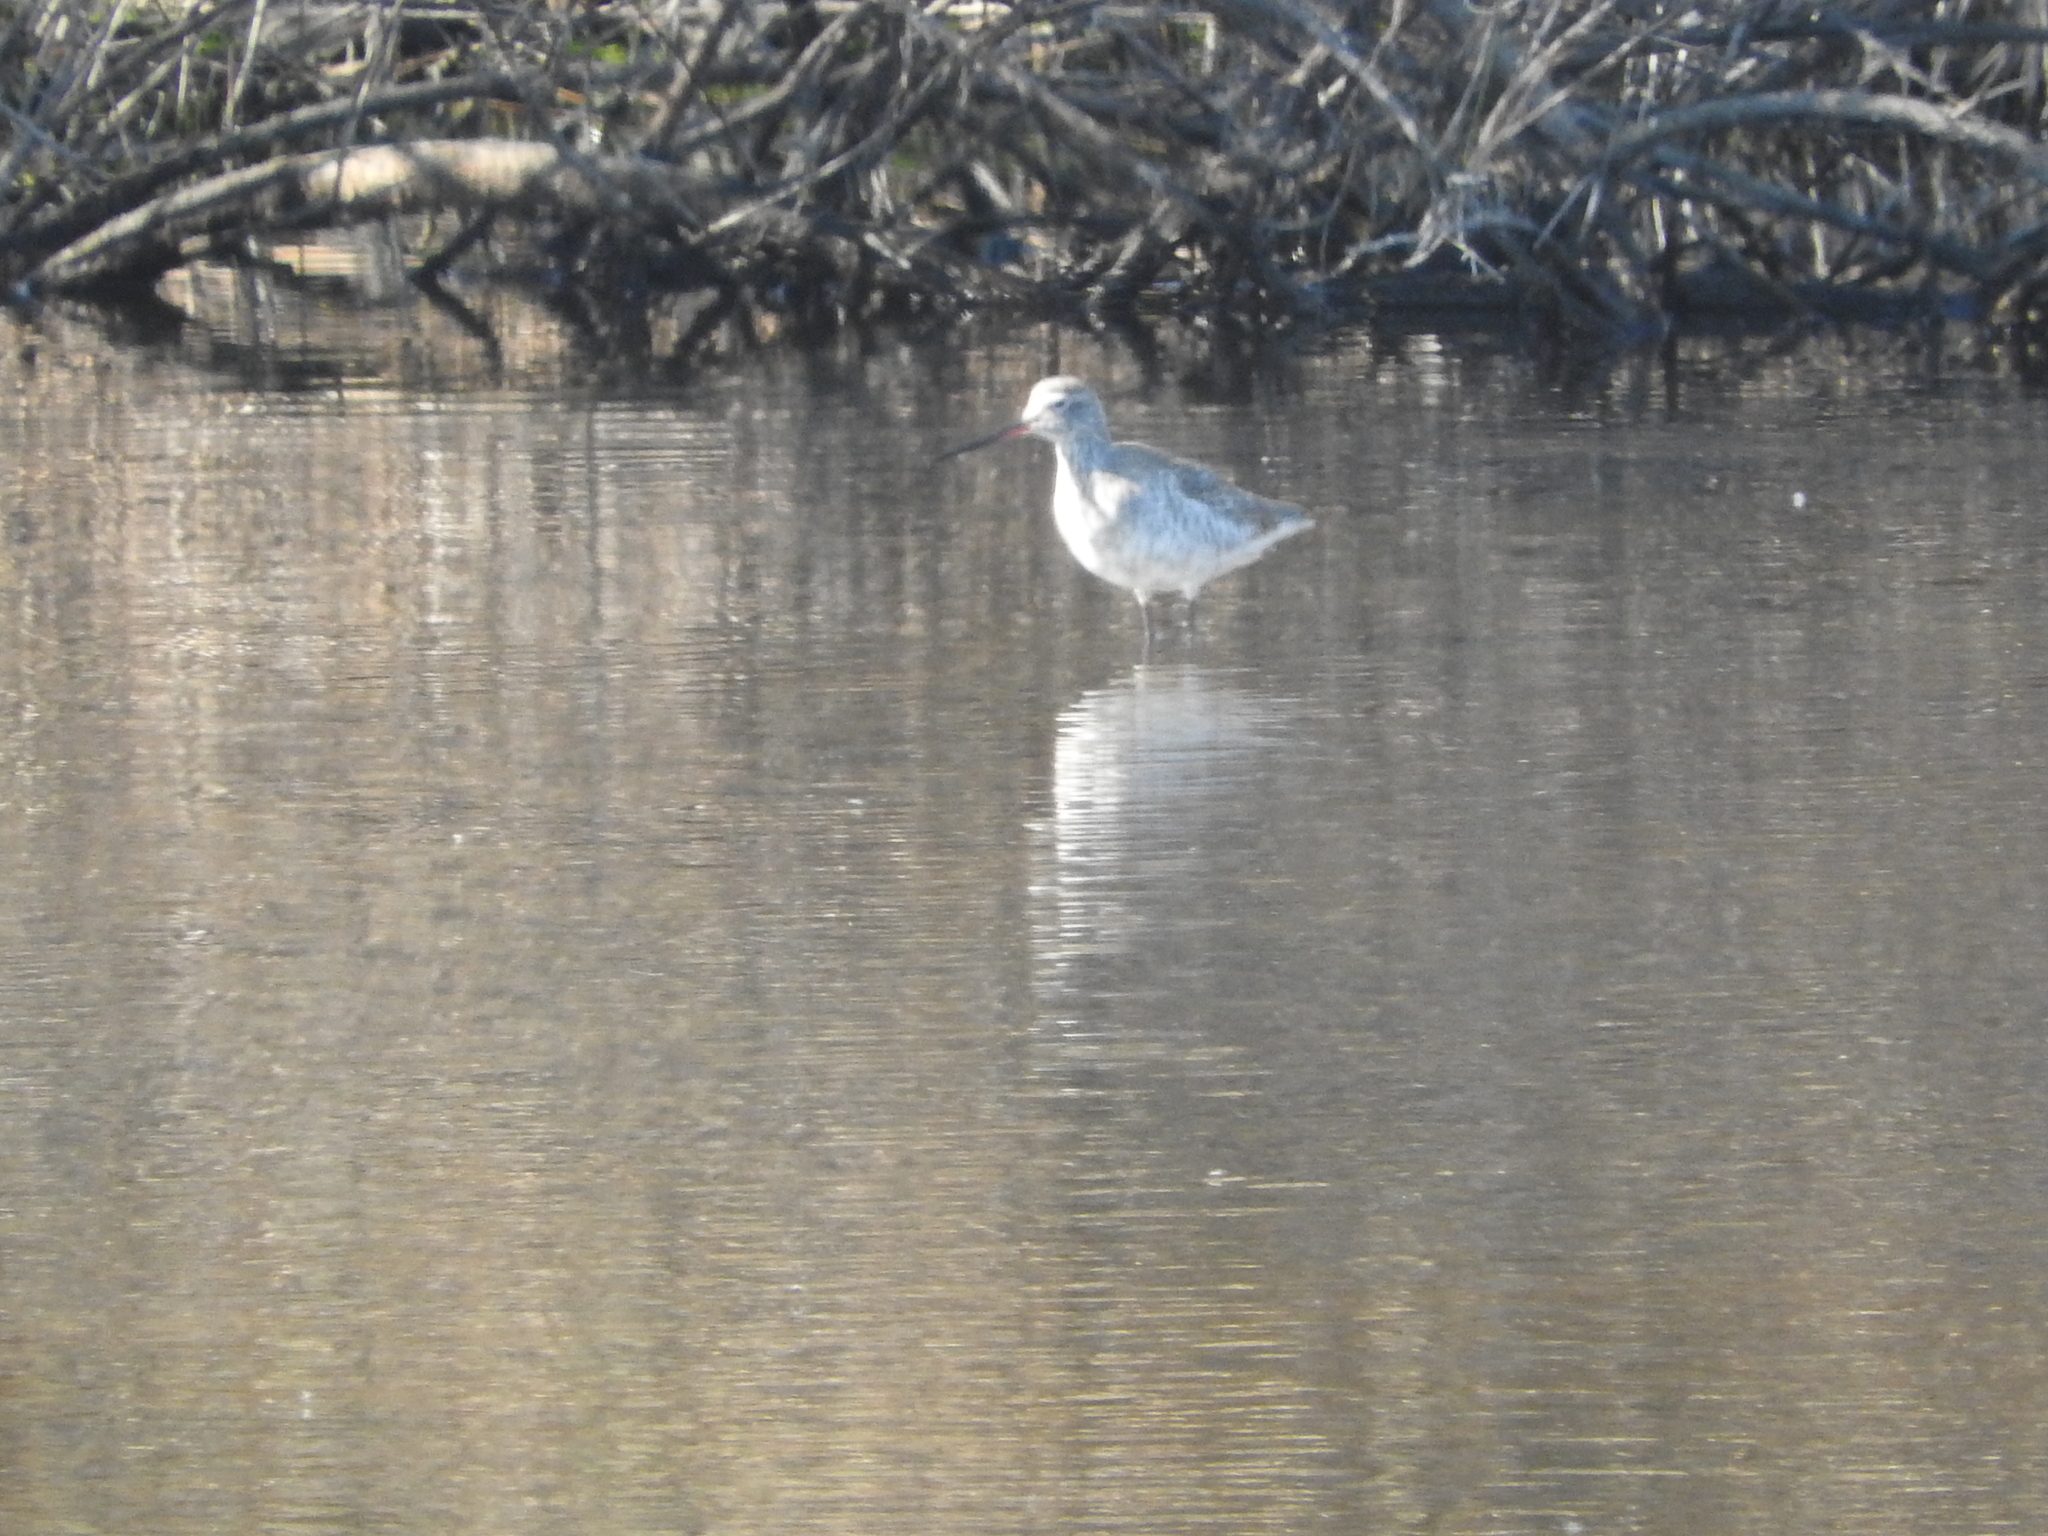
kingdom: Animalia
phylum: Chordata
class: Aves
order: Charadriiformes
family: Scolopacidae
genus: Tringa
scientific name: Tringa erythropus
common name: Spotted redshank
